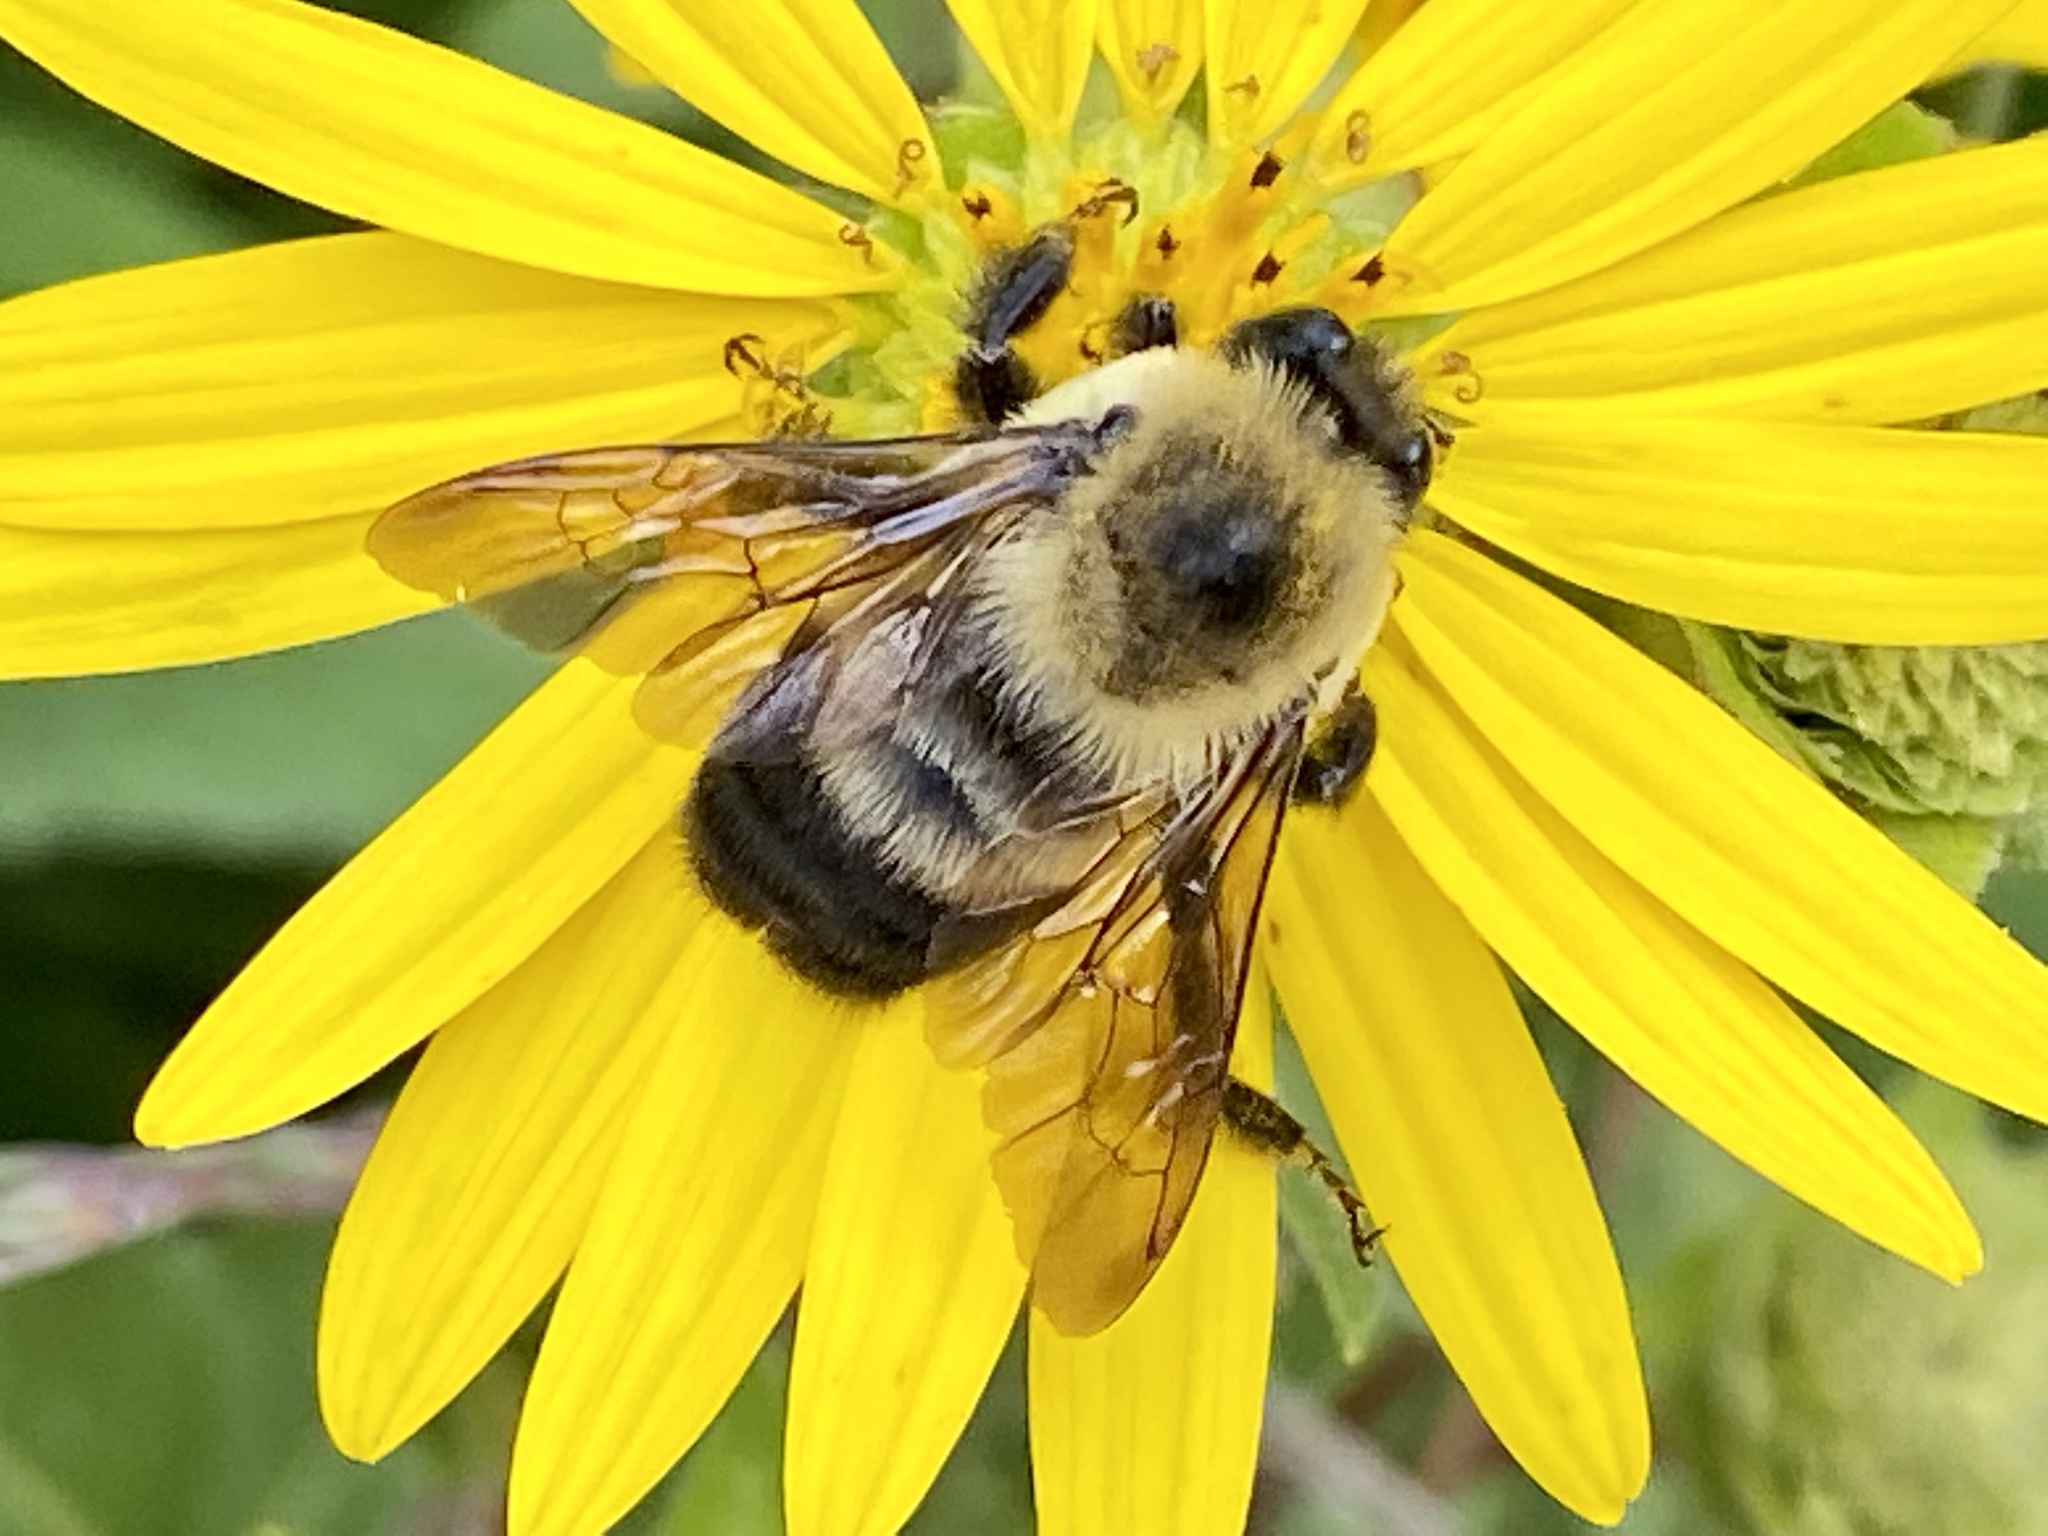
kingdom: Animalia
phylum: Arthropoda
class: Insecta
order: Hymenoptera
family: Apidae
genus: Bombus
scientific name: Bombus griseocollis
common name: Brown-belted bumble bee
